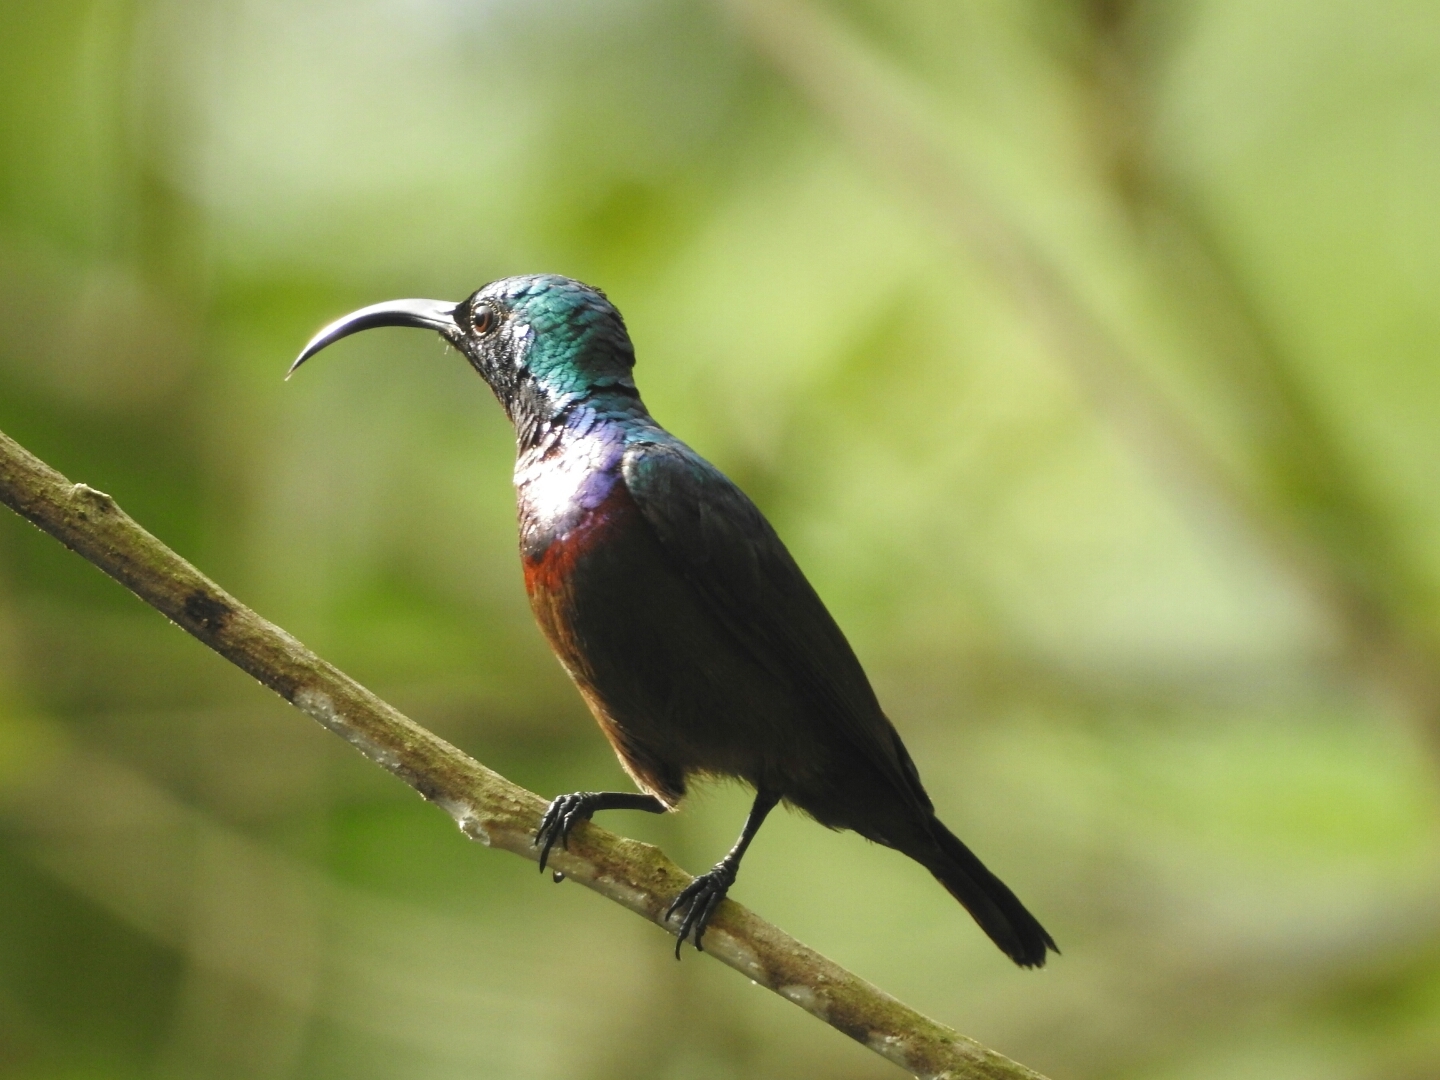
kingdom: Animalia
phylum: Chordata
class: Aves
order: Passeriformes
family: Nectariniidae
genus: Cinnyris
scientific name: Cinnyris lotenius
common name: Loten's sunbird
